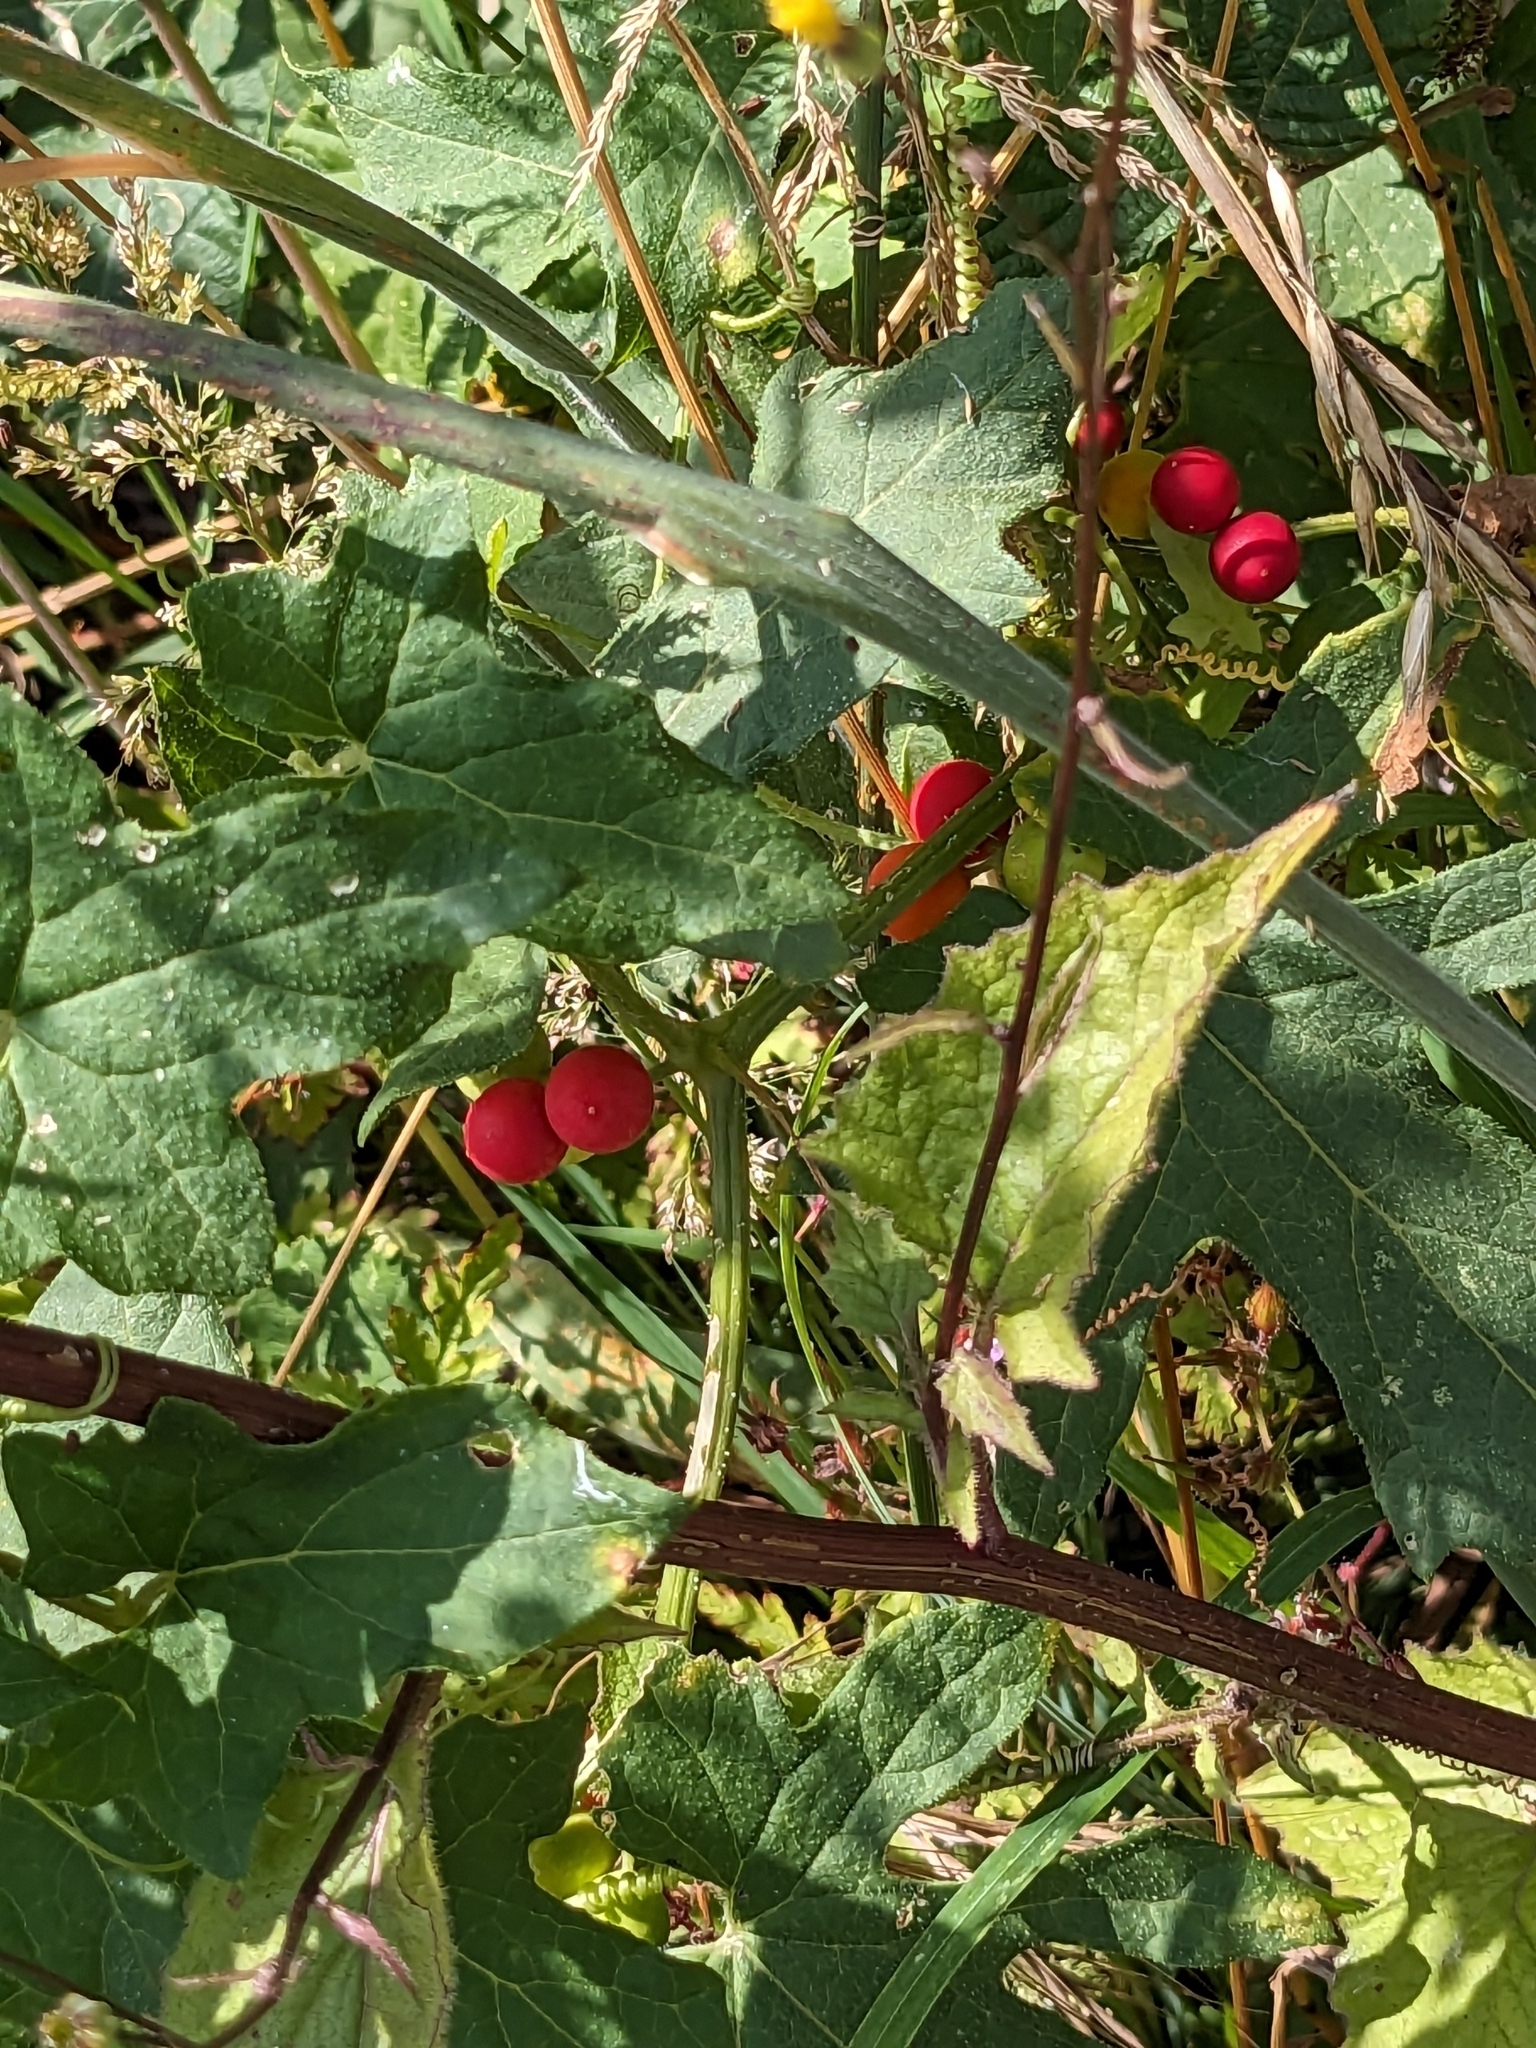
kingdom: Plantae
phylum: Tracheophyta
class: Magnoliopsida
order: Cucurbitales
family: Cucurbitaceae
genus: Bryonia
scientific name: Bryonia cretica
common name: Cretan bryony
